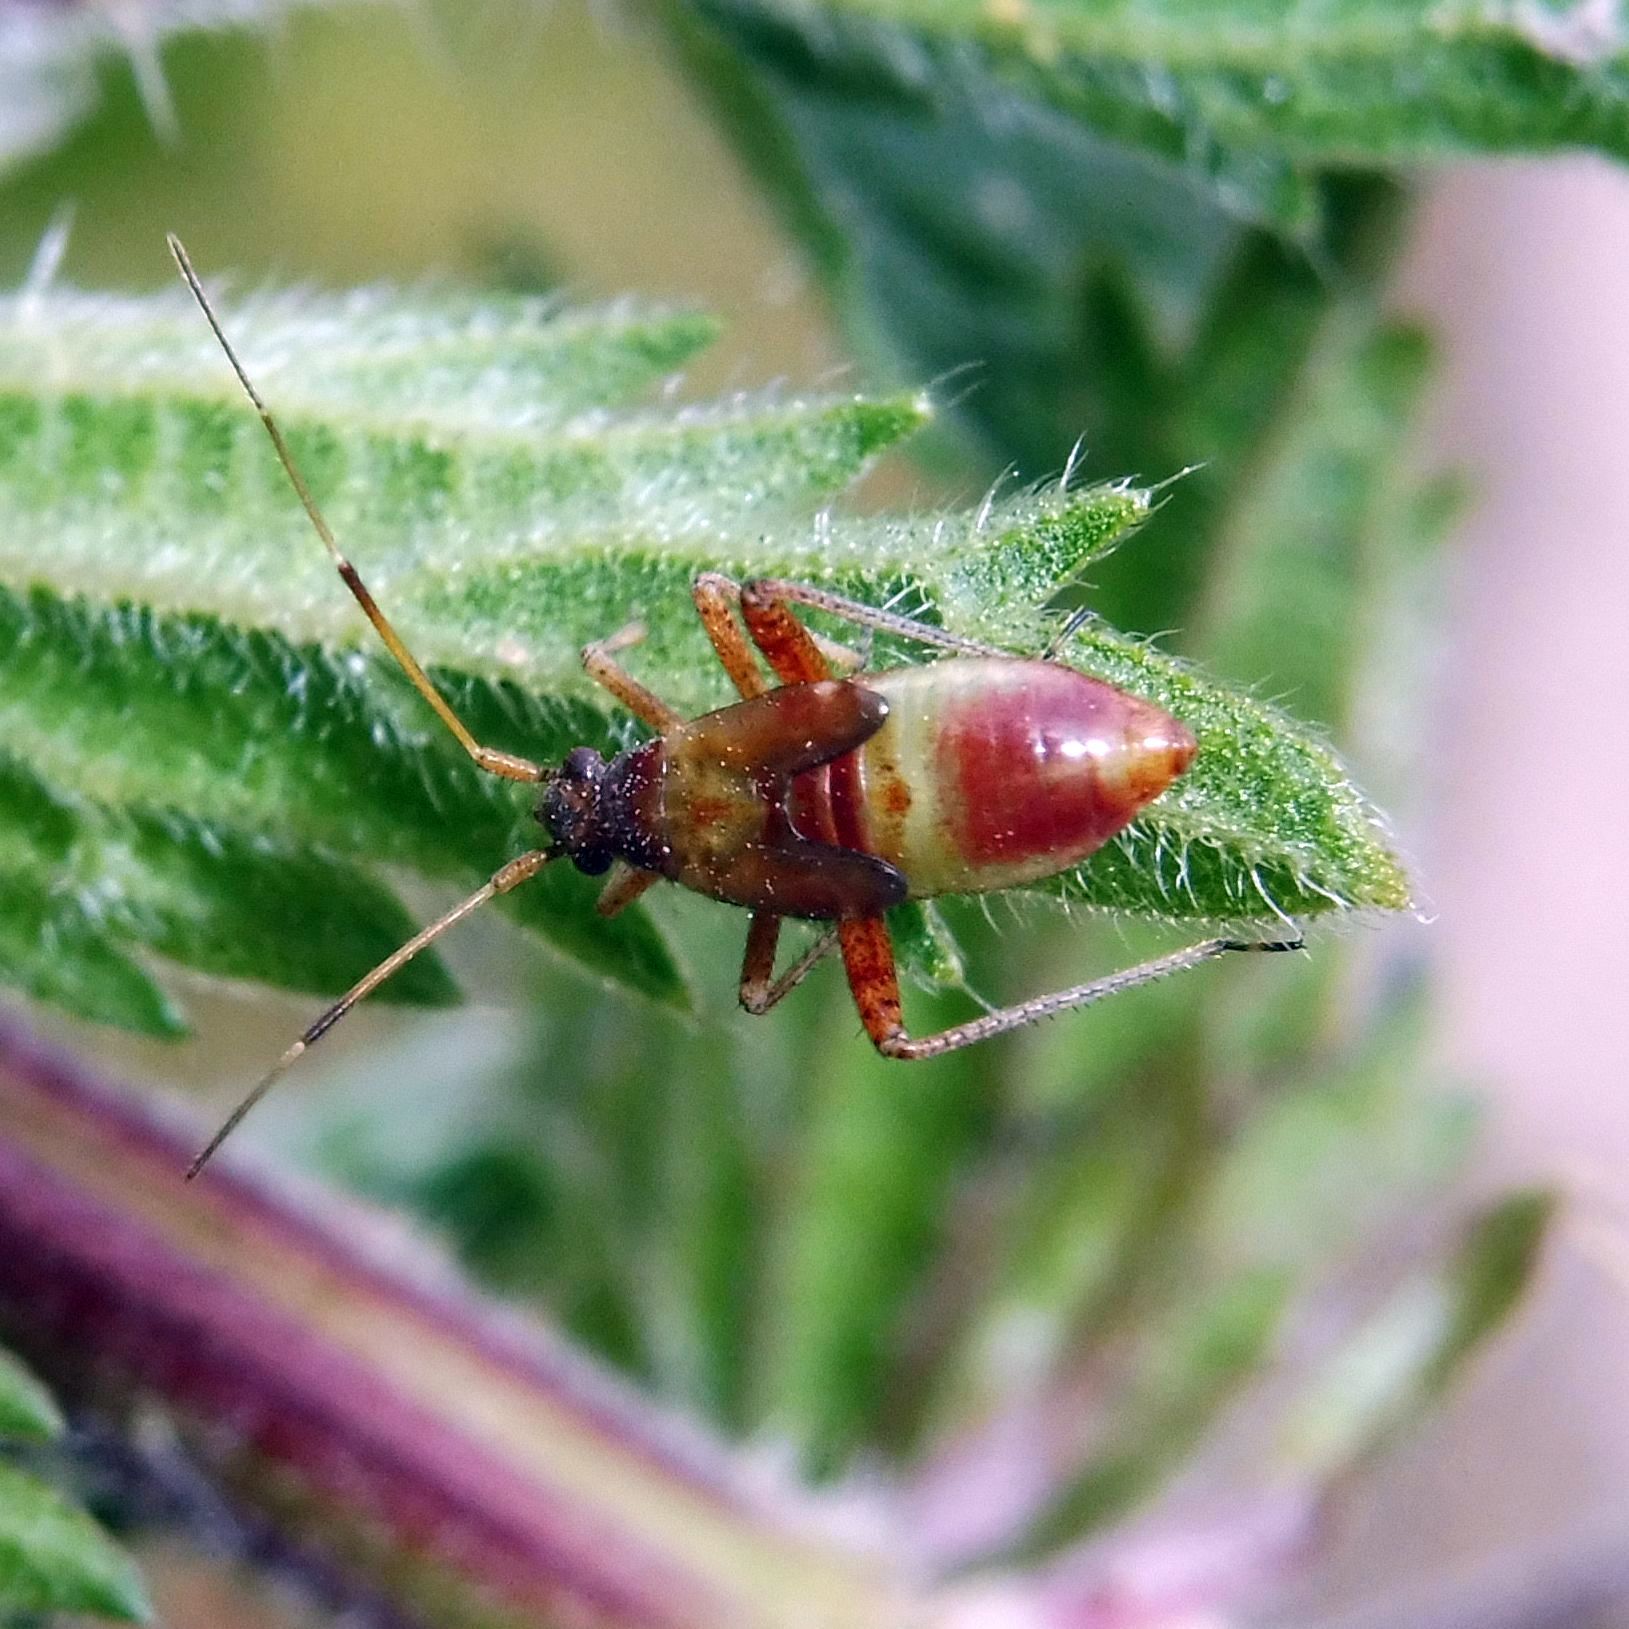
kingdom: Animalia
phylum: Arthropoda
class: Insecta
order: Hemiptera
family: Miridae
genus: Closterotomus
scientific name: Closterotomus fulvomaculatus
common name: Spotted plant bug
